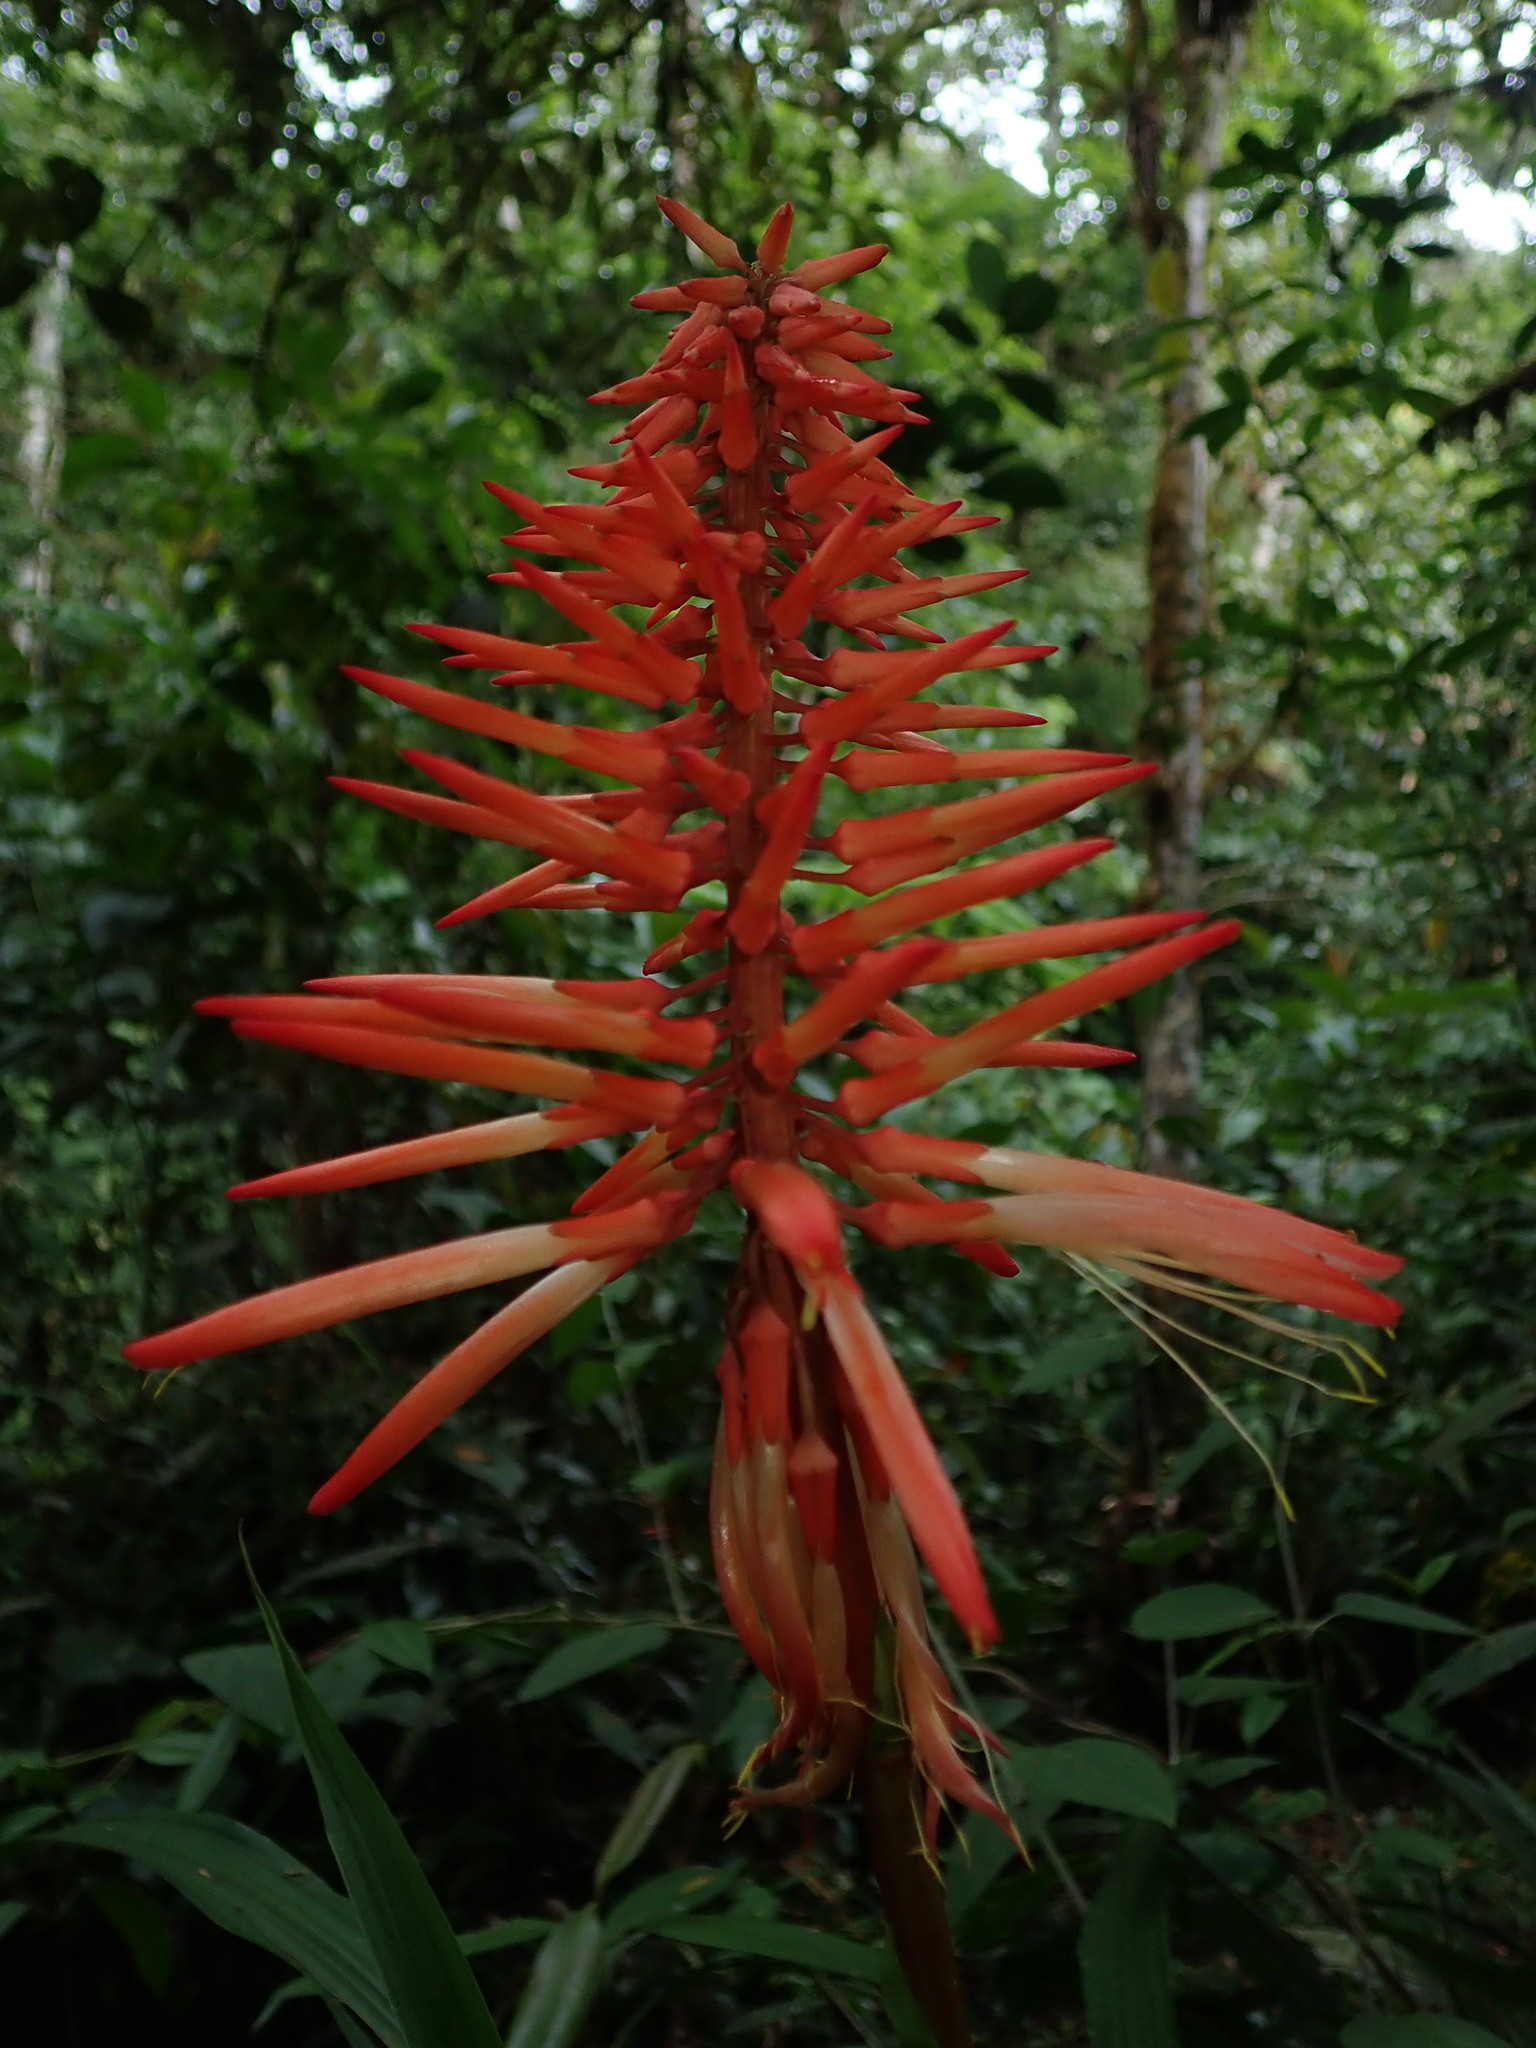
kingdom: Plantae
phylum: Tracheophyta
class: Liliopsida
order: Poales
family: Bromeliaceae
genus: Pitcairnia
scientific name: Pitcairnia reflexiflora
